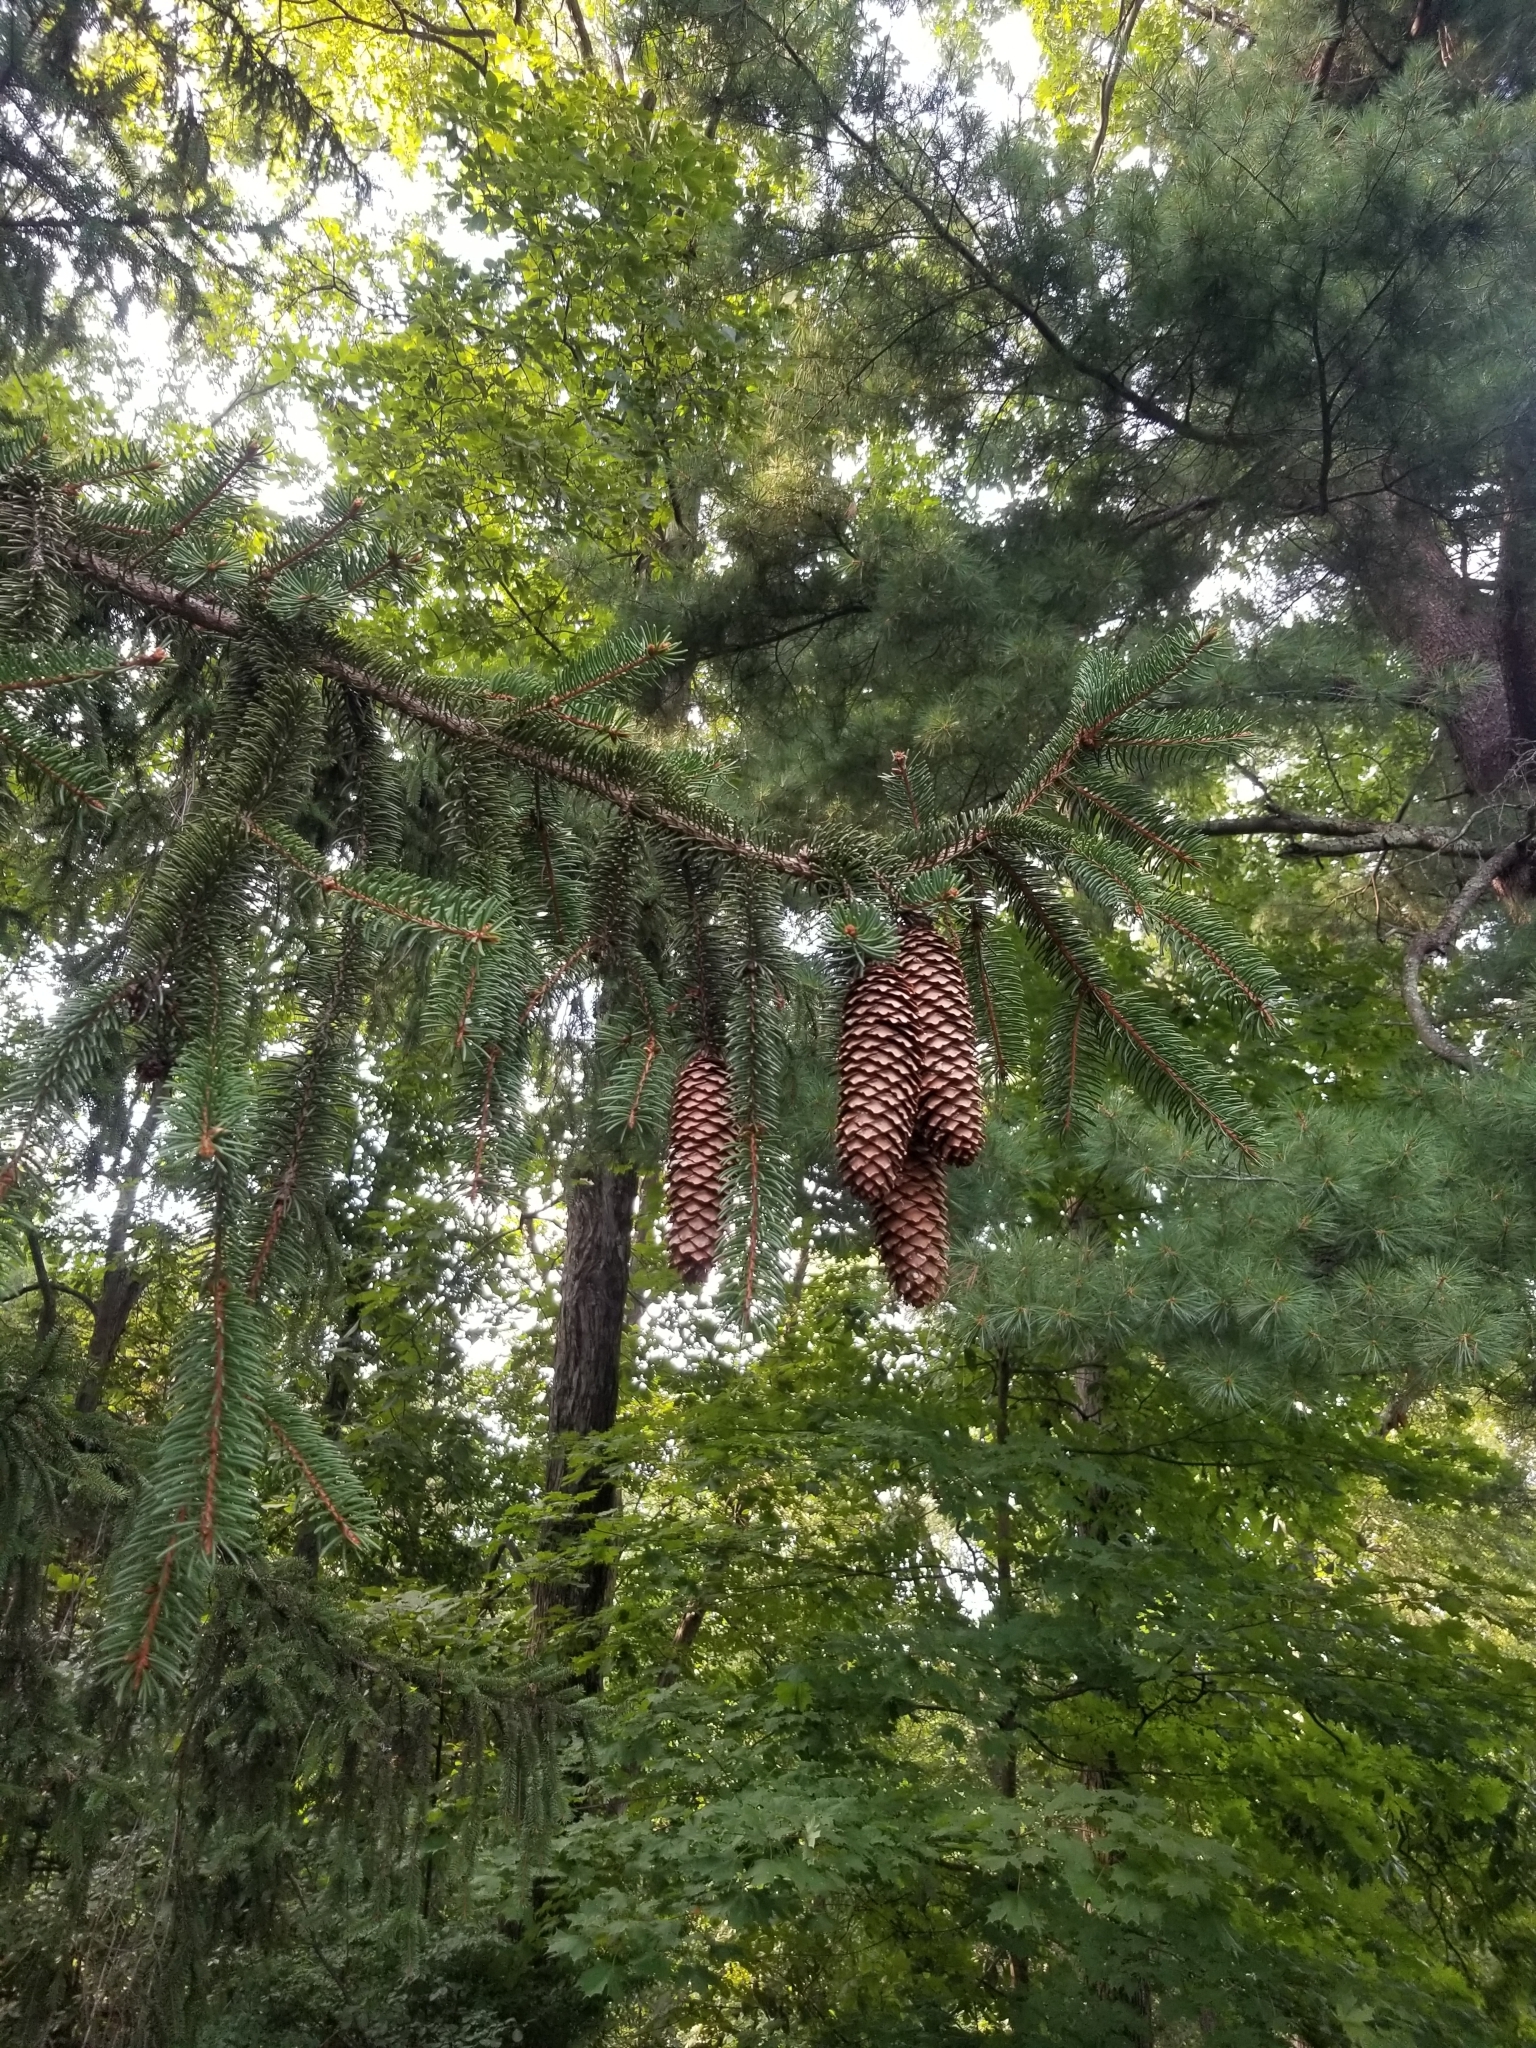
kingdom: Plantae
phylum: Tracheophyta
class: Pinopsida
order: Pinales
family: Pinaceae
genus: Picea
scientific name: Picea abies
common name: Norway spruce
